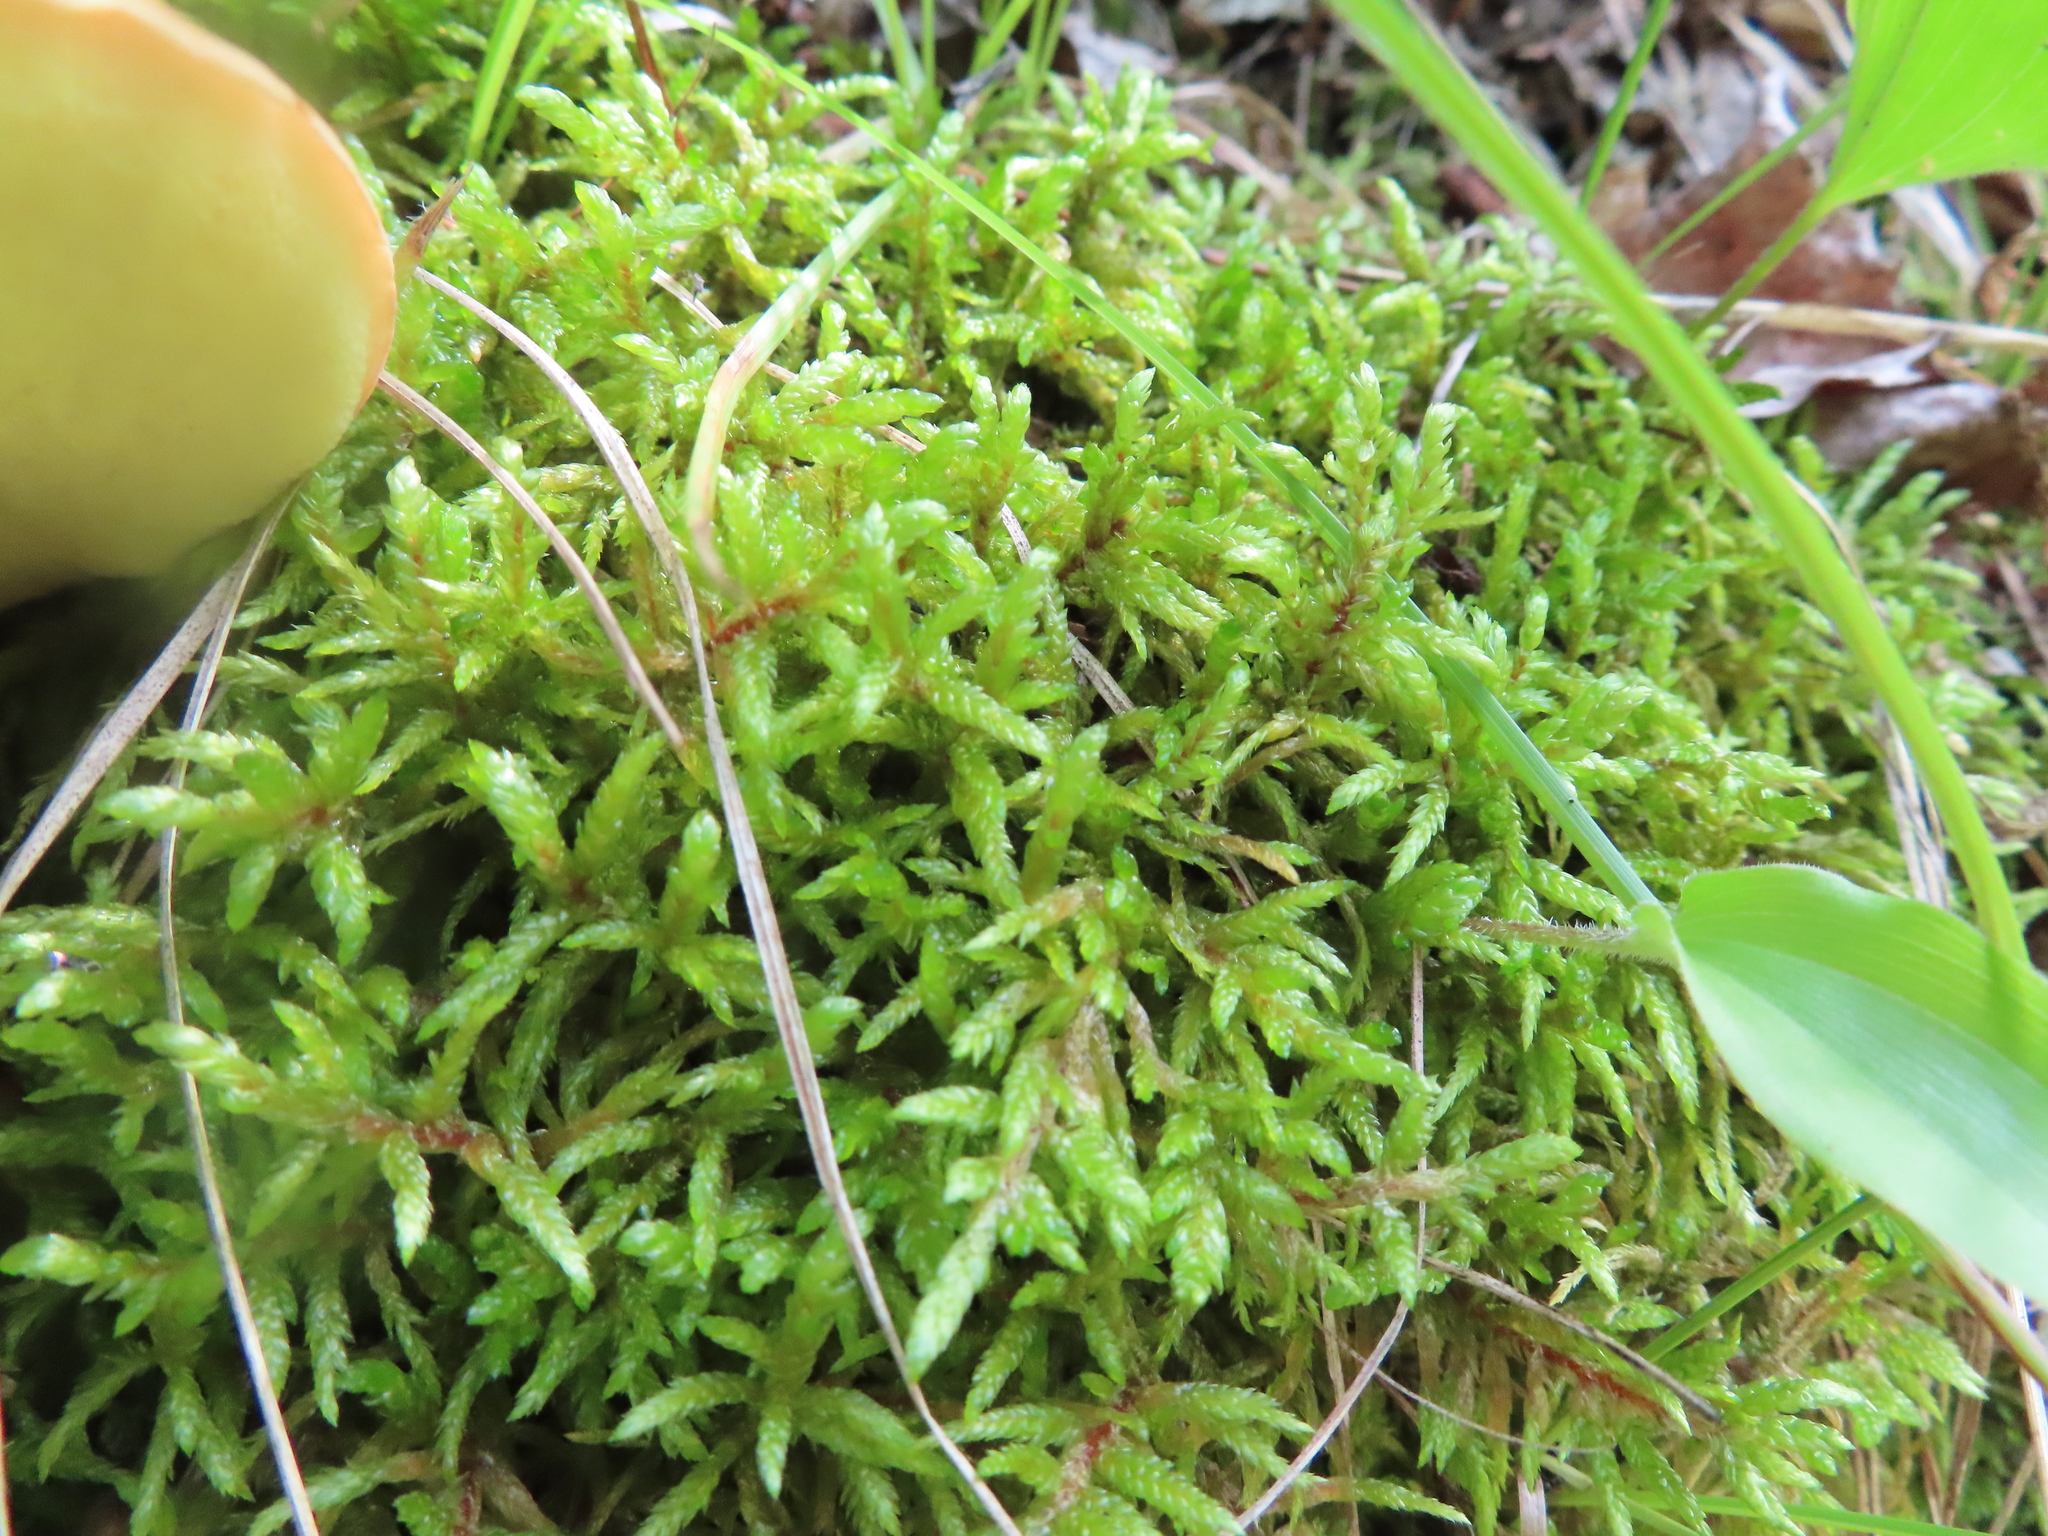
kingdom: Plantae
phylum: Bryophyta
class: Bryopsida
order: Hypnales
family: Hylocomiaceae
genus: Pleurozium
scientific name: Pleurozium schreberi
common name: Red-stemmed feather moss
